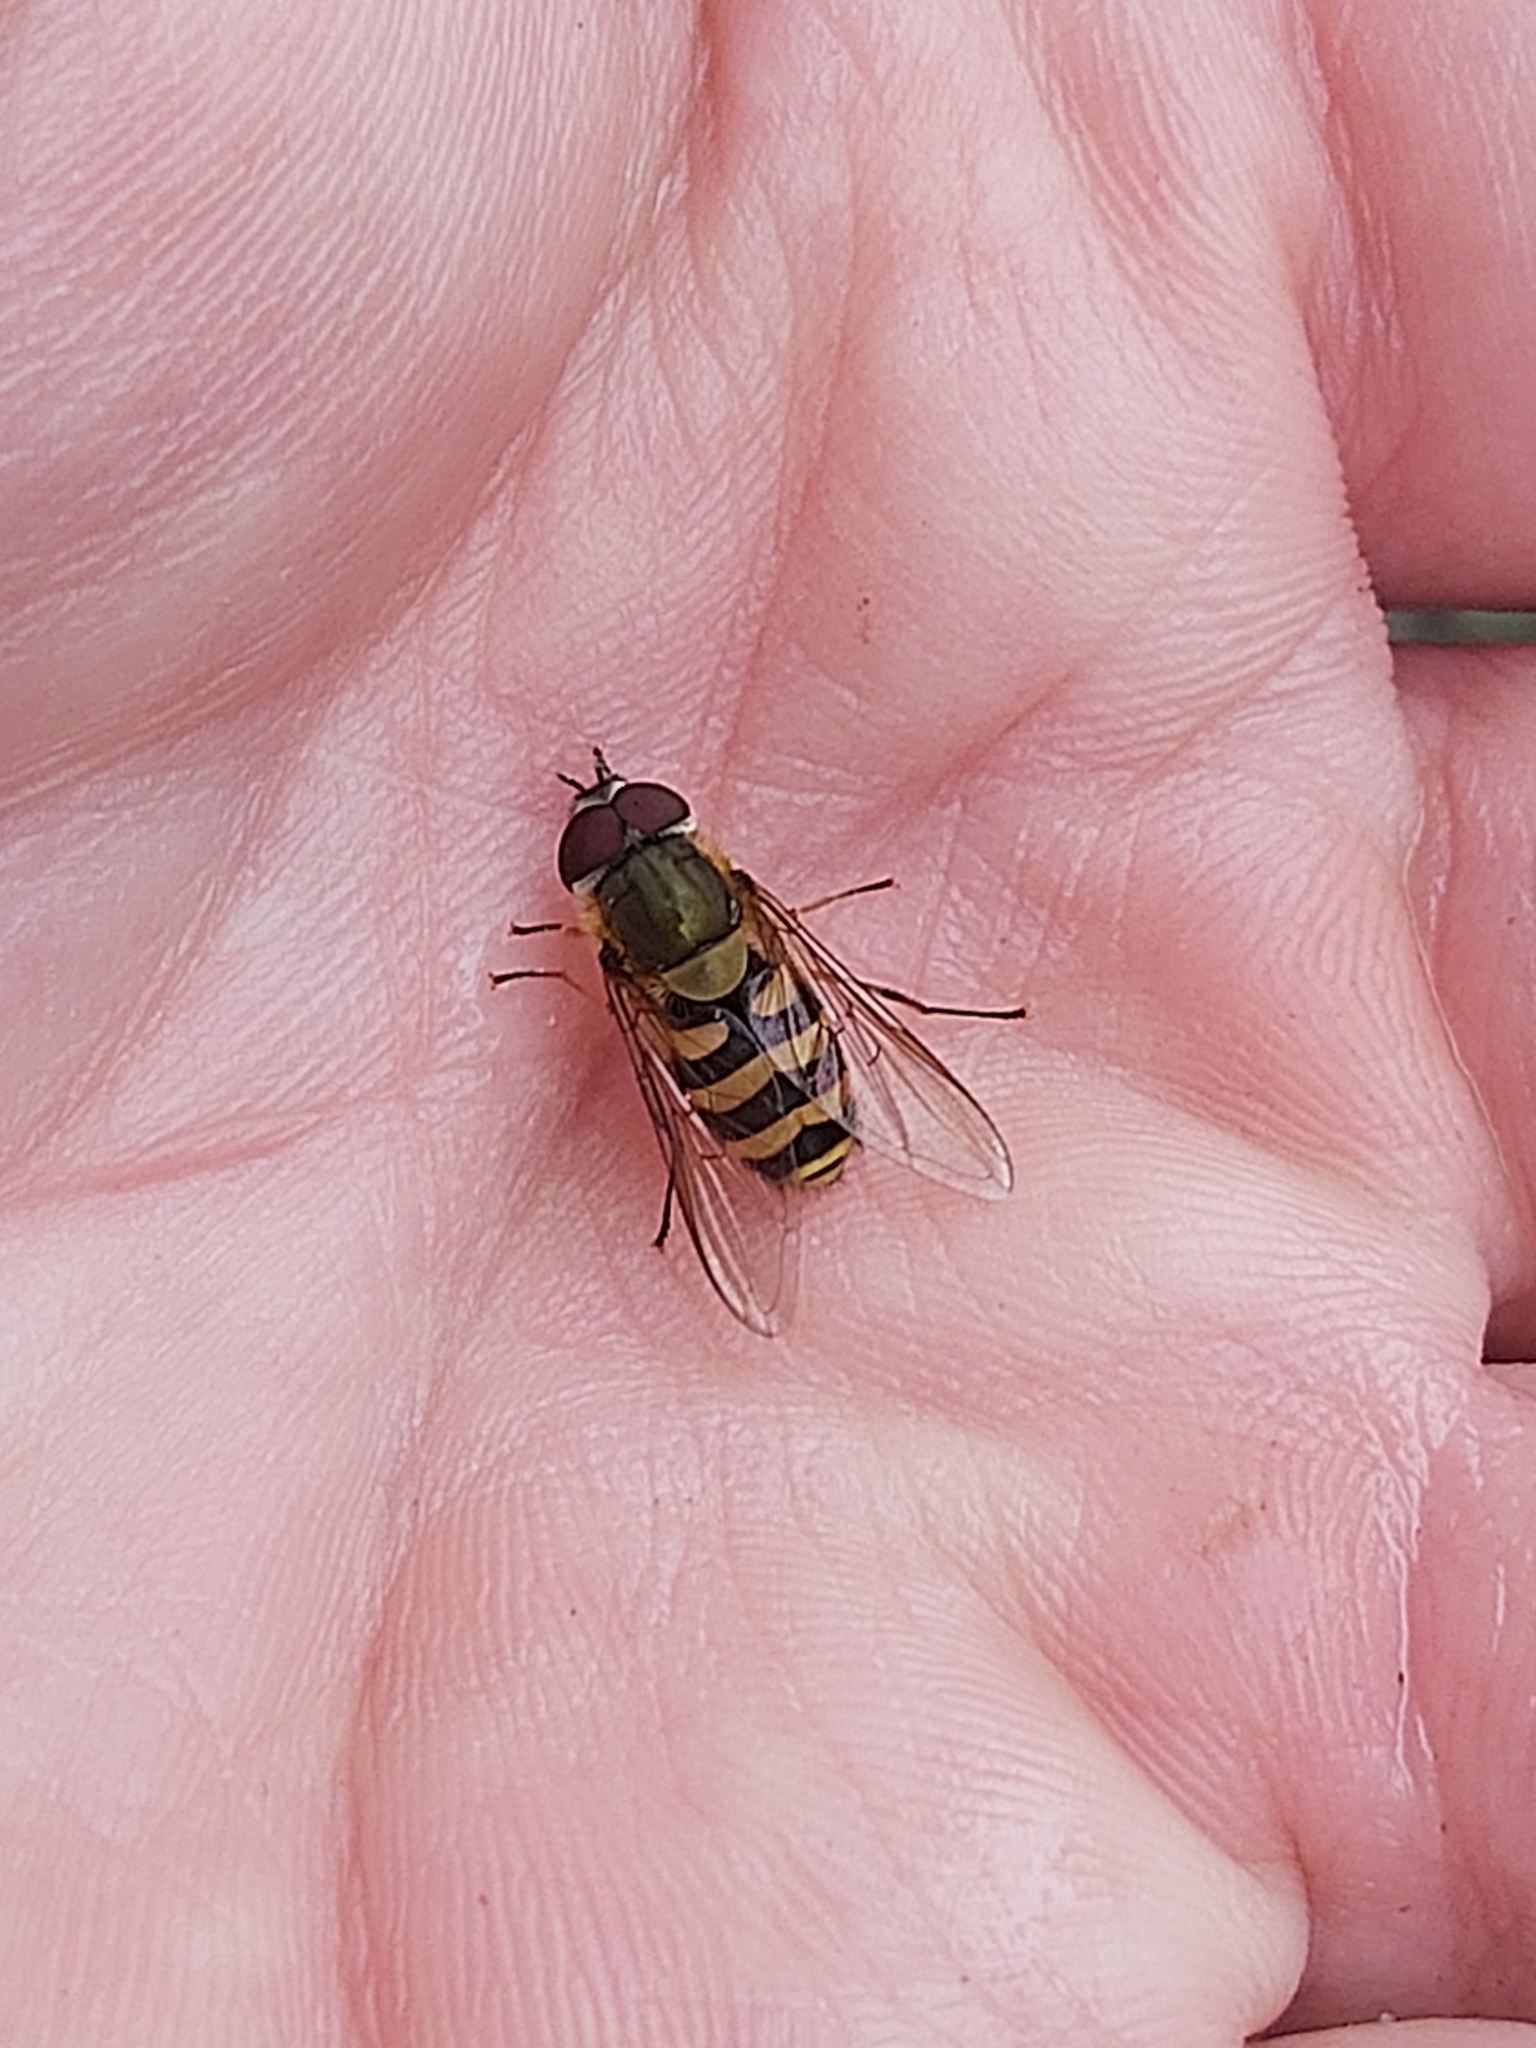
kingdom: Animalia
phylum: Arthropoda
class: Insecta
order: Diptera
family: Syrphidae
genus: Syrphus
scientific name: Syrphus torvus
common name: Hairy-eyed flower fly
